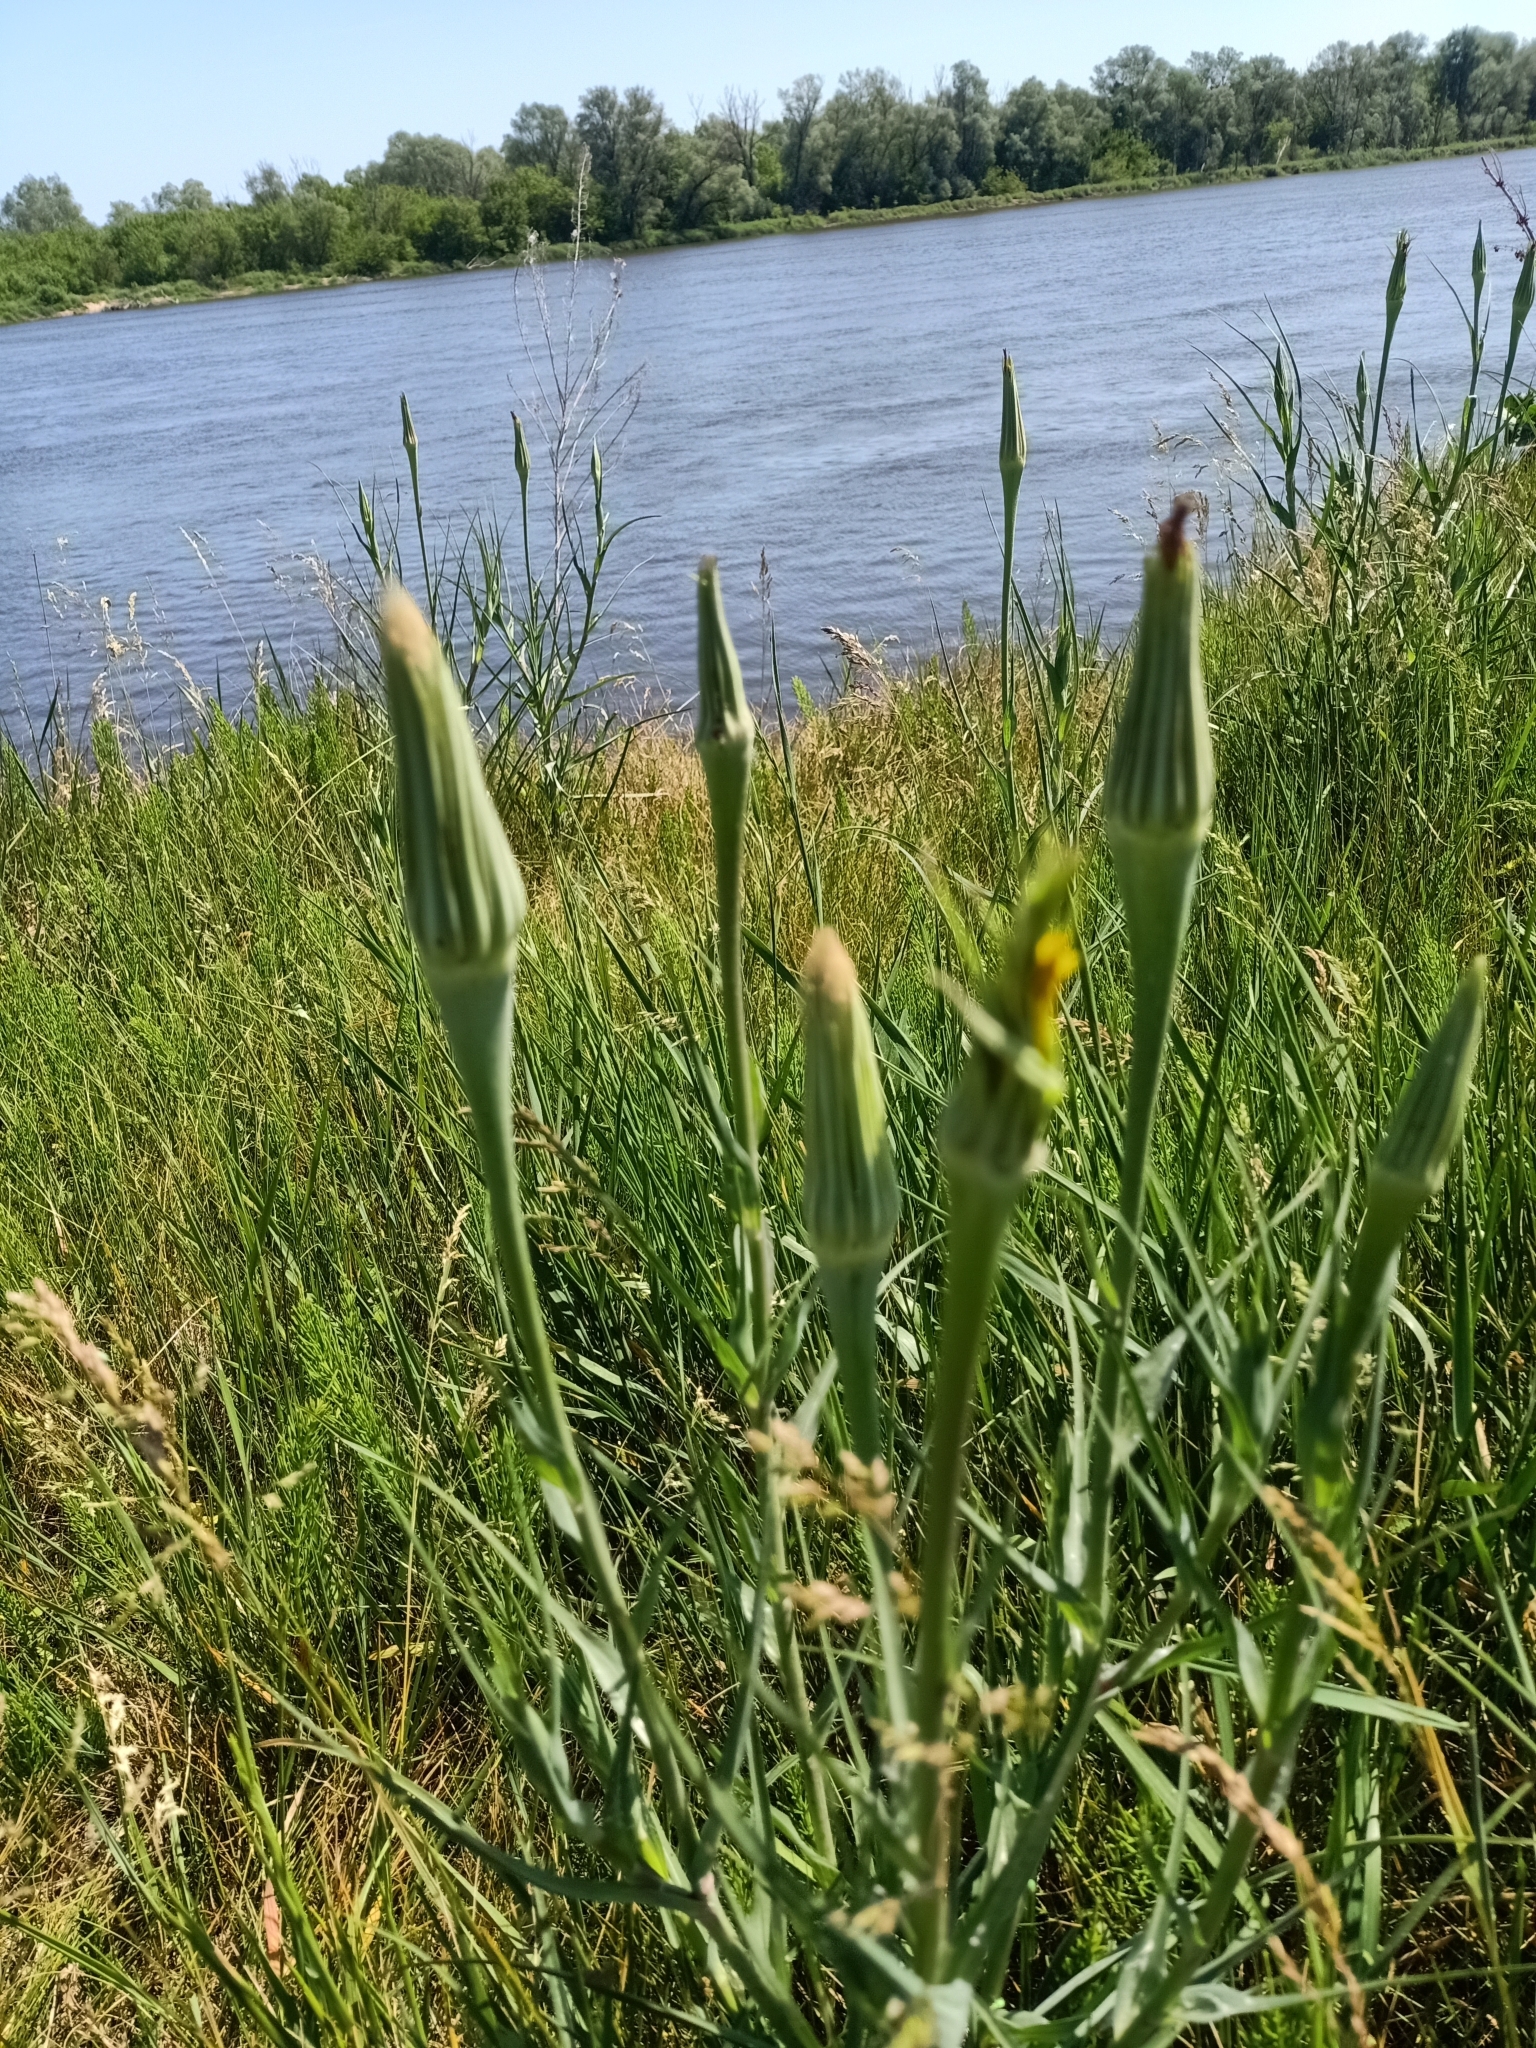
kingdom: Plantae
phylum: Tracheophyta
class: Magnoliopsida
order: Asterales
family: Asteraceae
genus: Tragopogon
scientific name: Tragopogon dubius
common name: Yellow salsify
